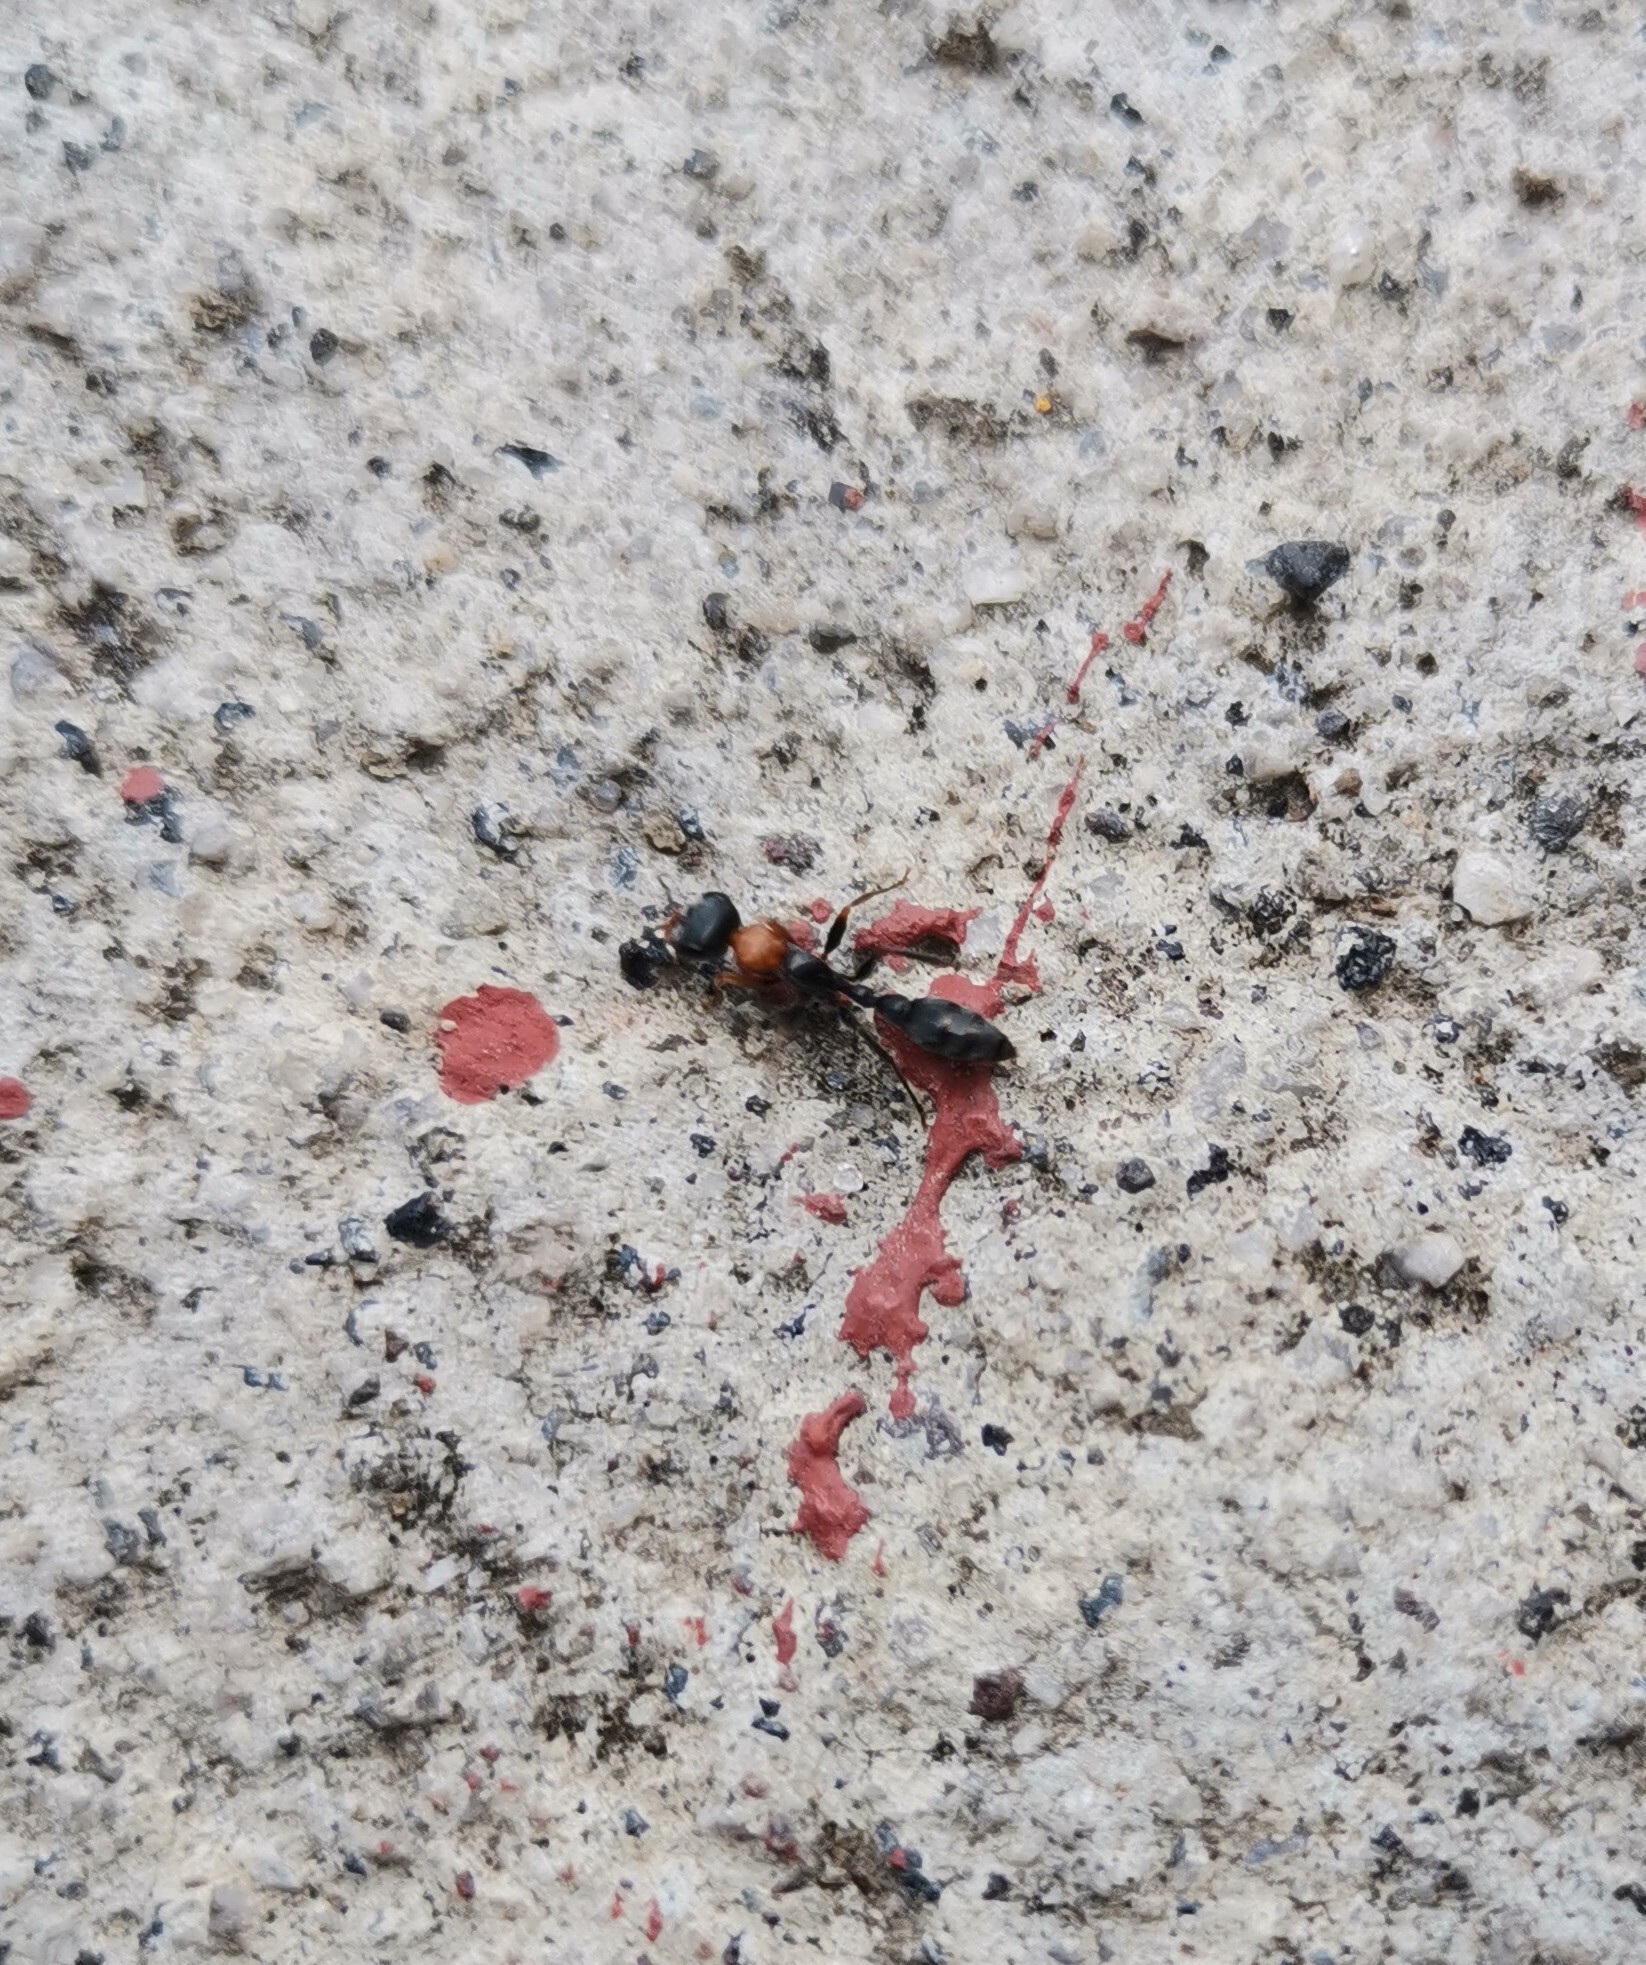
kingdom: Animalia
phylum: Arthropoda
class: Insecta
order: Hymenoptera
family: Formicidae
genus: Pseudomyrmex
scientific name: Pseudomyrmex gracilis
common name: Graceful twig ant
